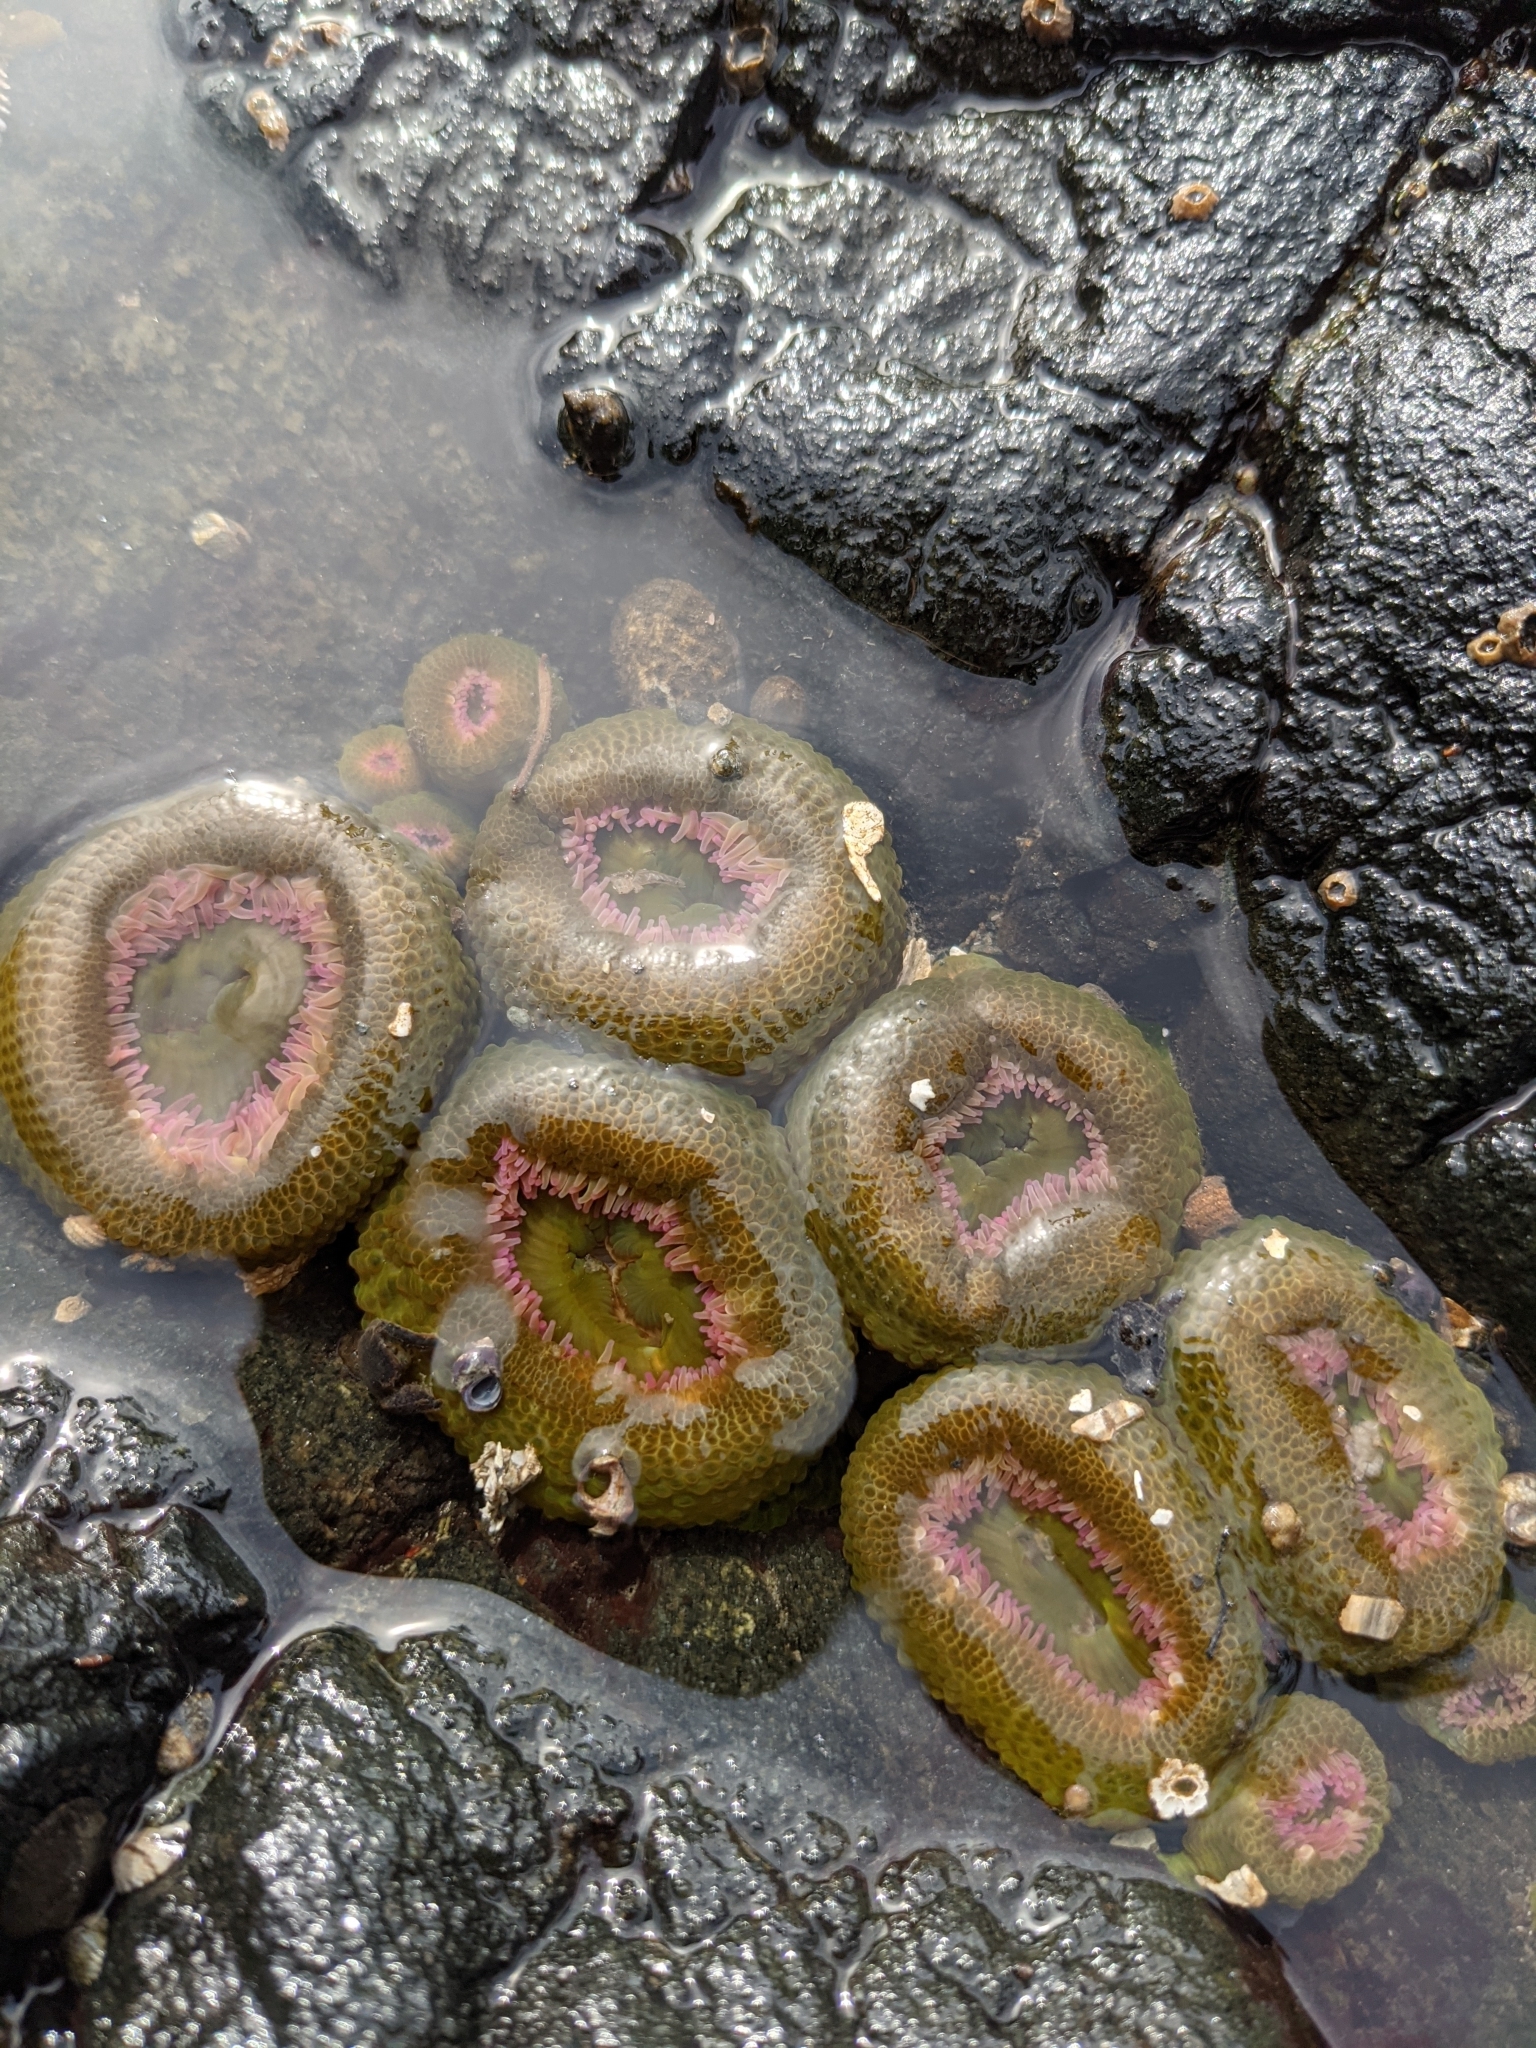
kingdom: Animalia
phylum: Cnidaria
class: Anthozoa
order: Actiniaria
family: Actiniidae
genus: Anthopleura
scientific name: Anthopleura elegantissima
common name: Clonal anemone
